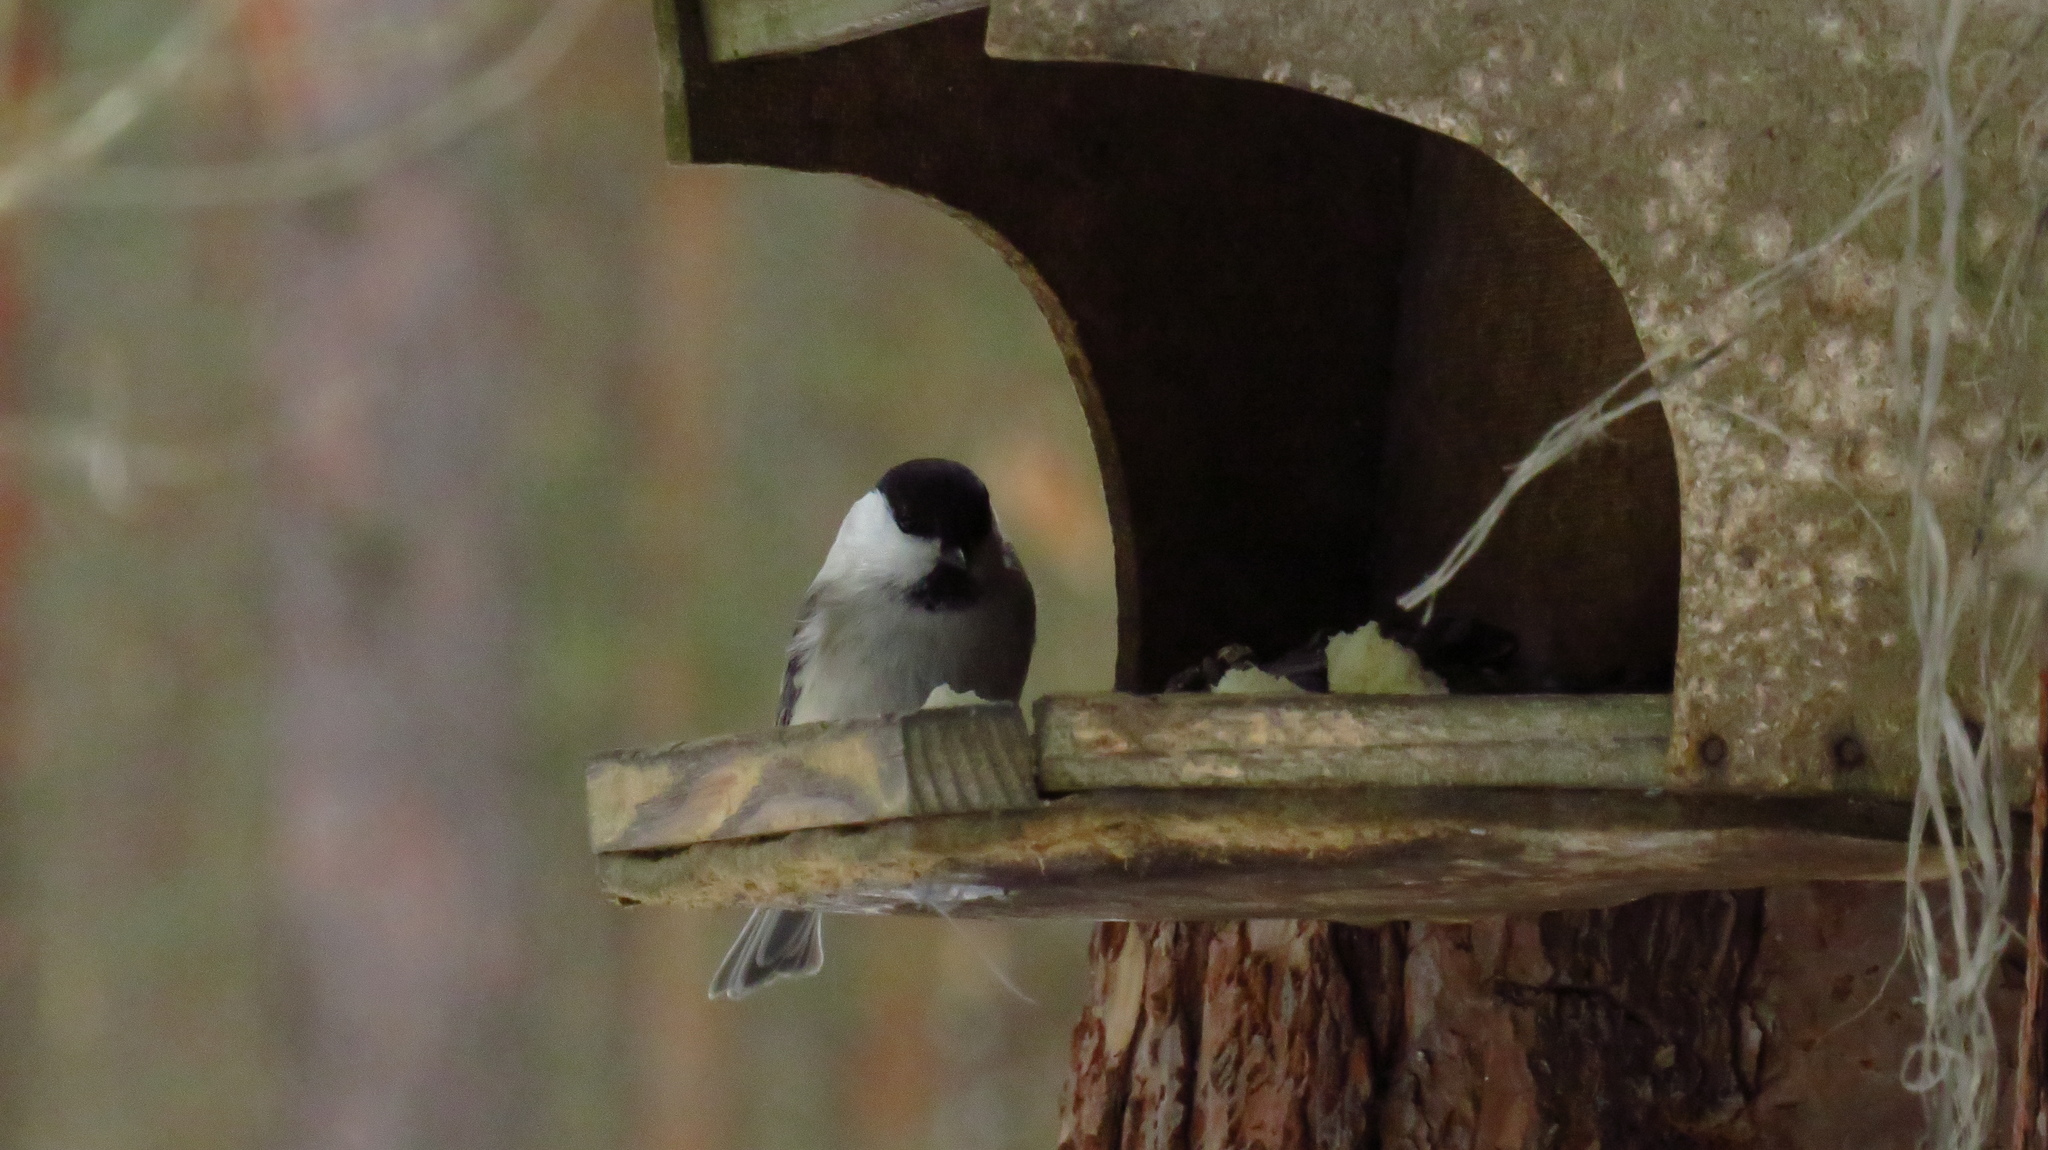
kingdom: Animalia
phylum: Chordata
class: Aves
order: Passeriformes
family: Paridae
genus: Poecile
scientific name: Poecile montanus
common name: Willow tit
